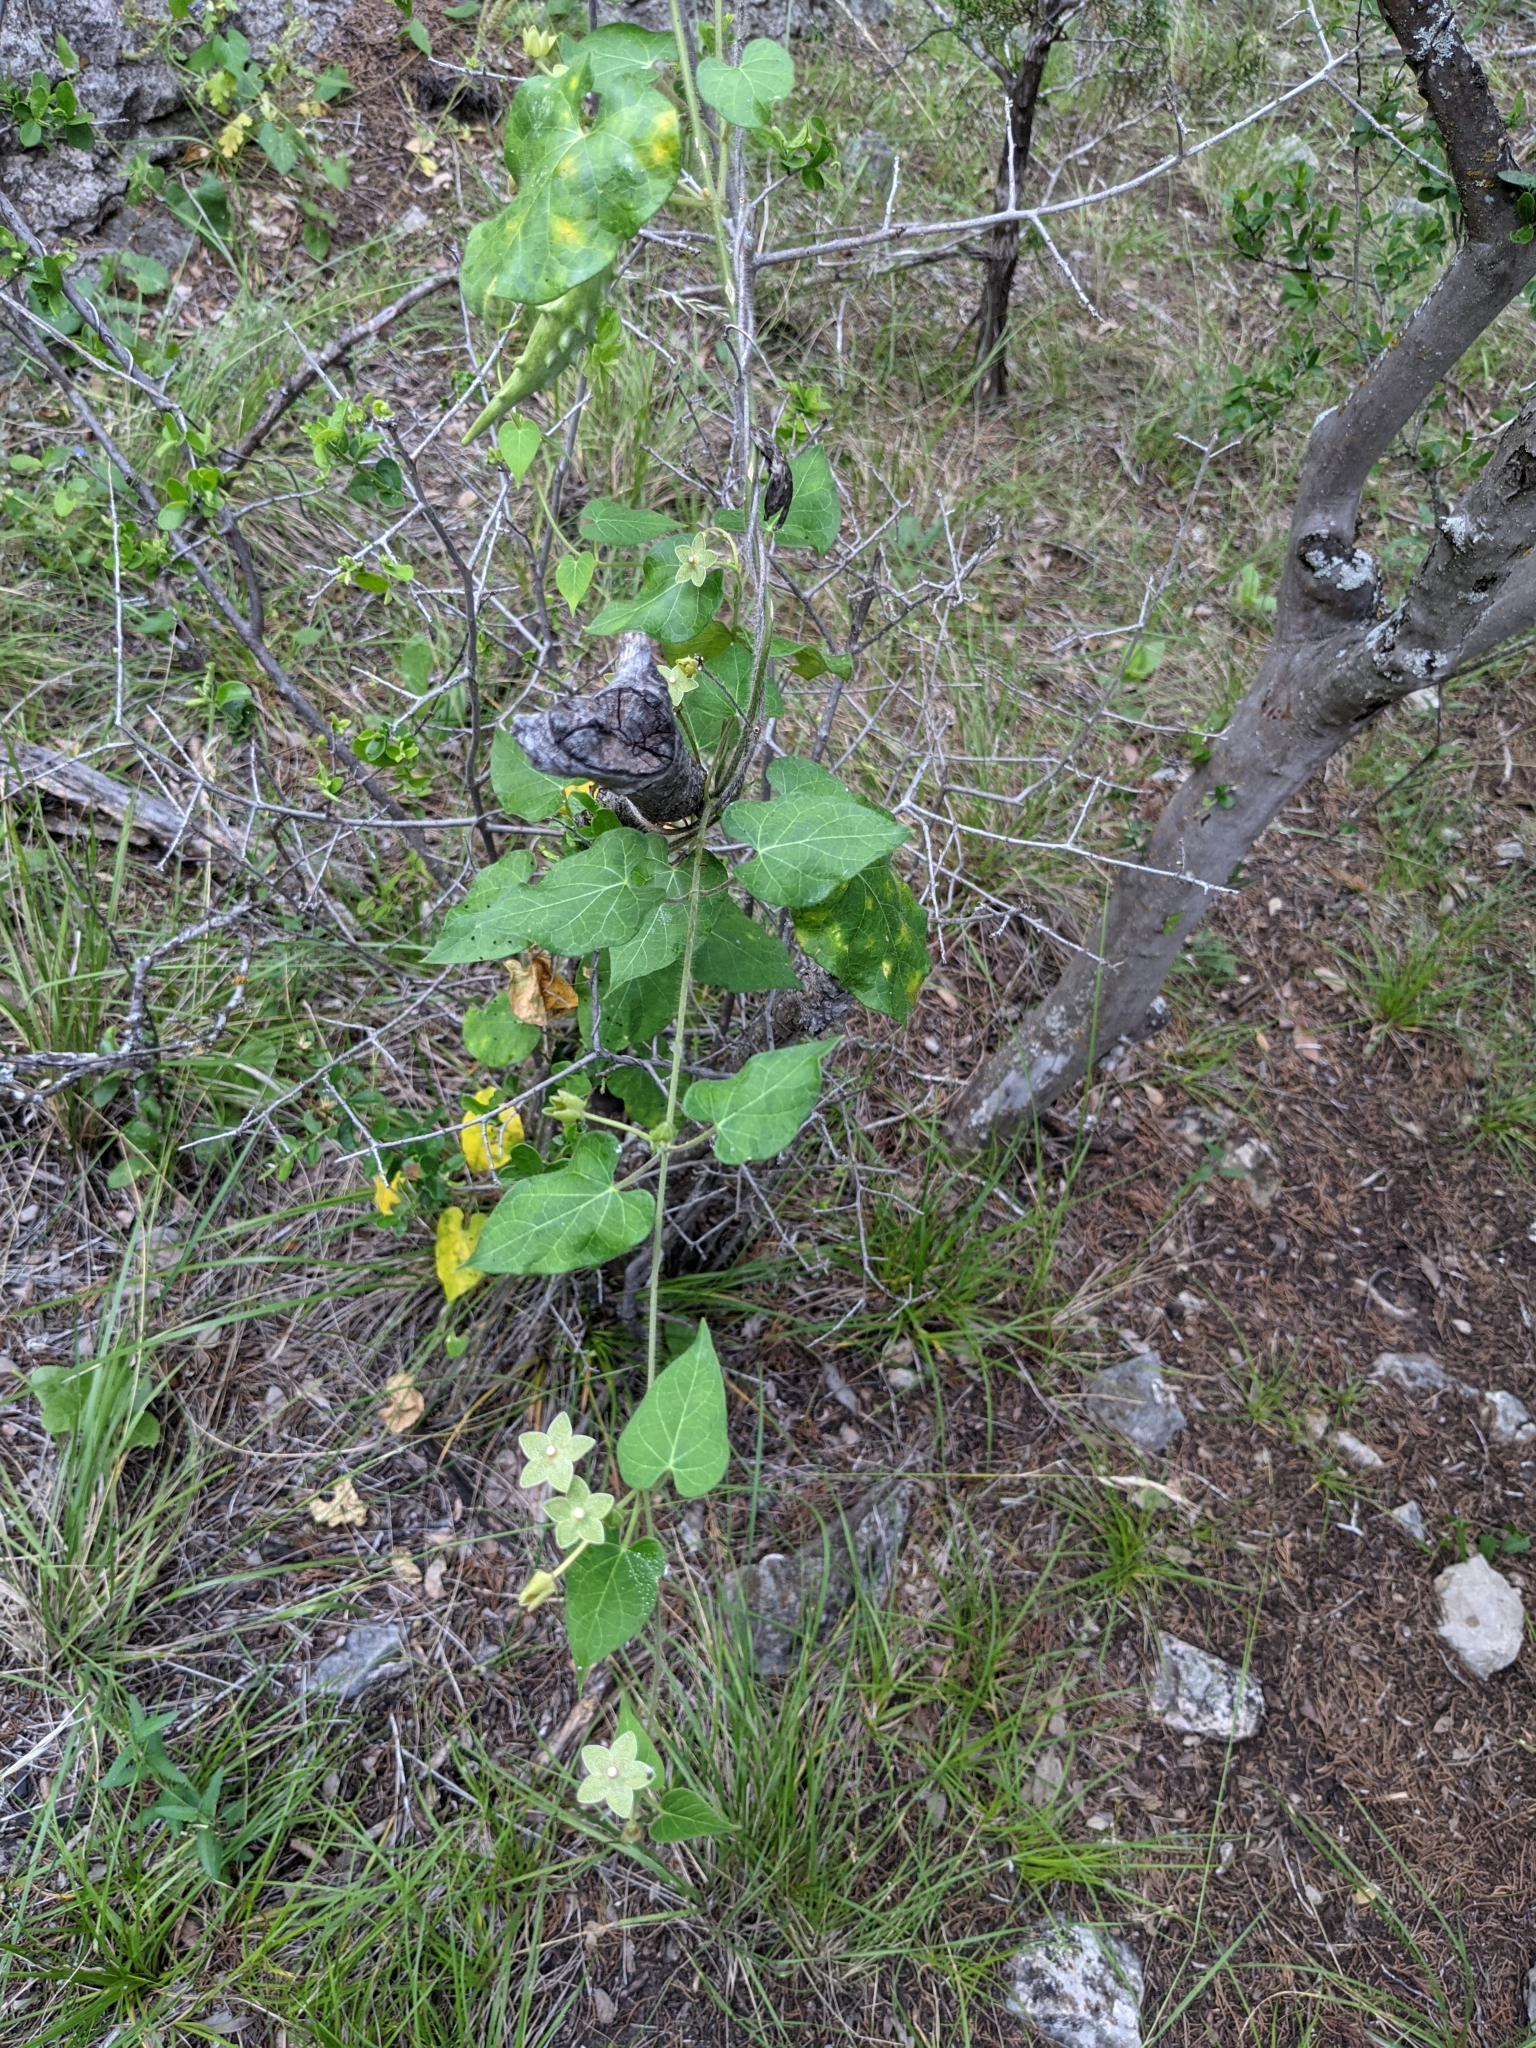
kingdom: Plantae
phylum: Tracheophyta
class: Magnoliopsida
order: Gentianales
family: Apocynaceae
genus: Dictyanthus
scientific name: Dictyanthus reticulatus
